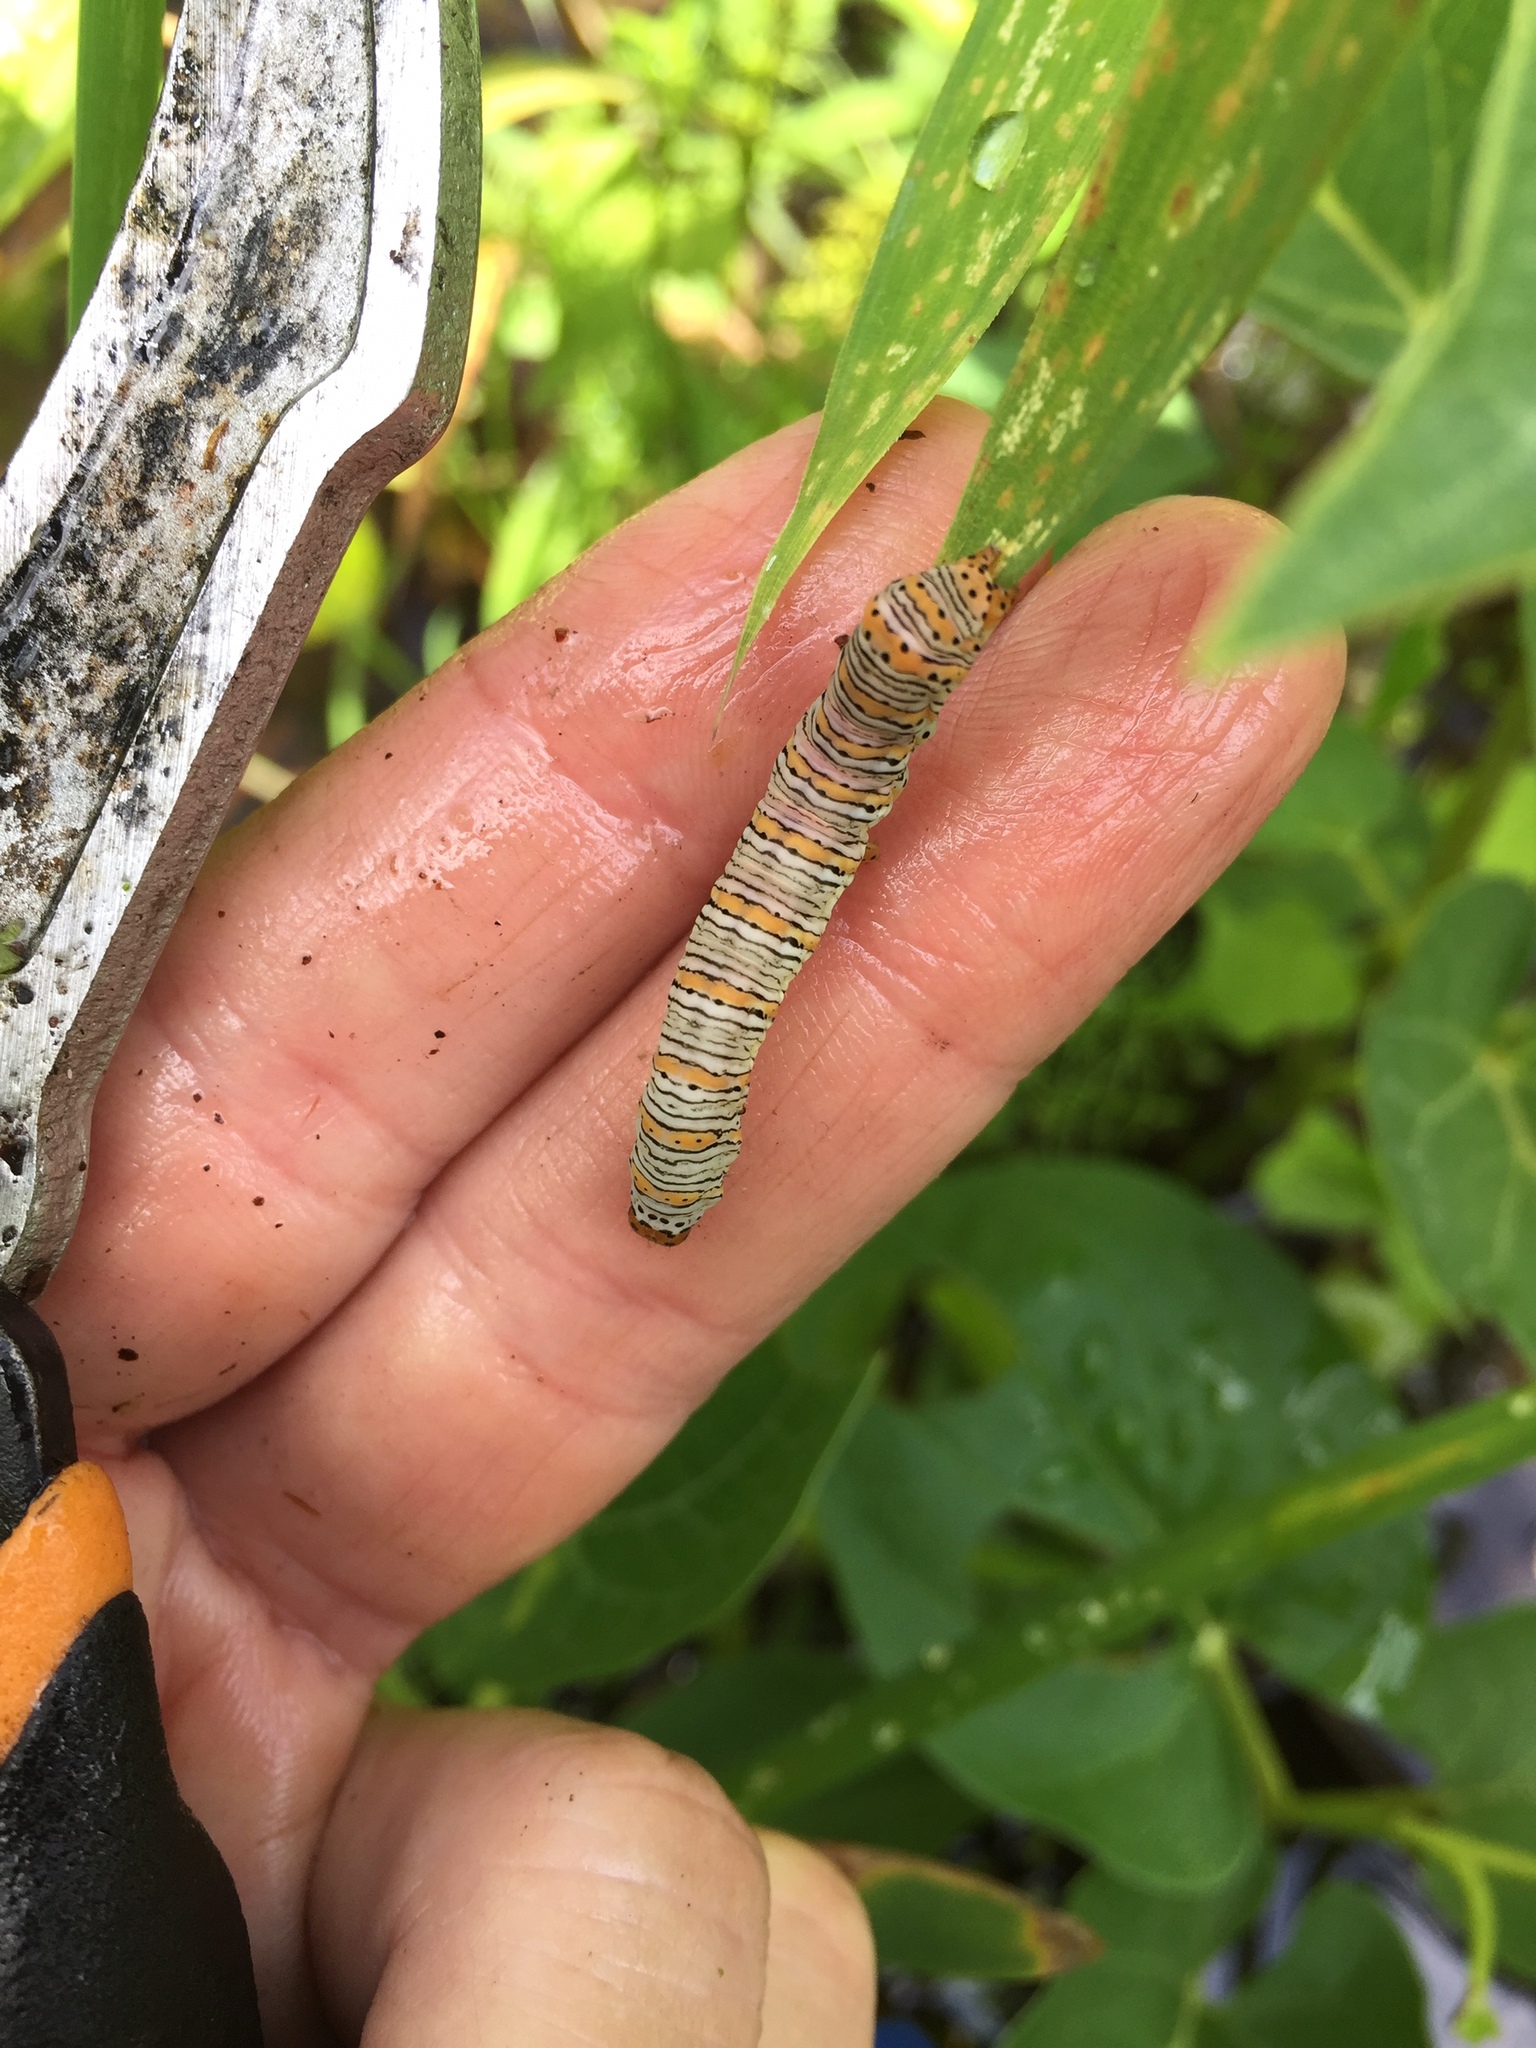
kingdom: Animalia
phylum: Arthropoda
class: Insecta
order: Lepidoptera
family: Noctuidae
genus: Eudryas
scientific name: Eudryas unio
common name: Pearly wood-nymph
